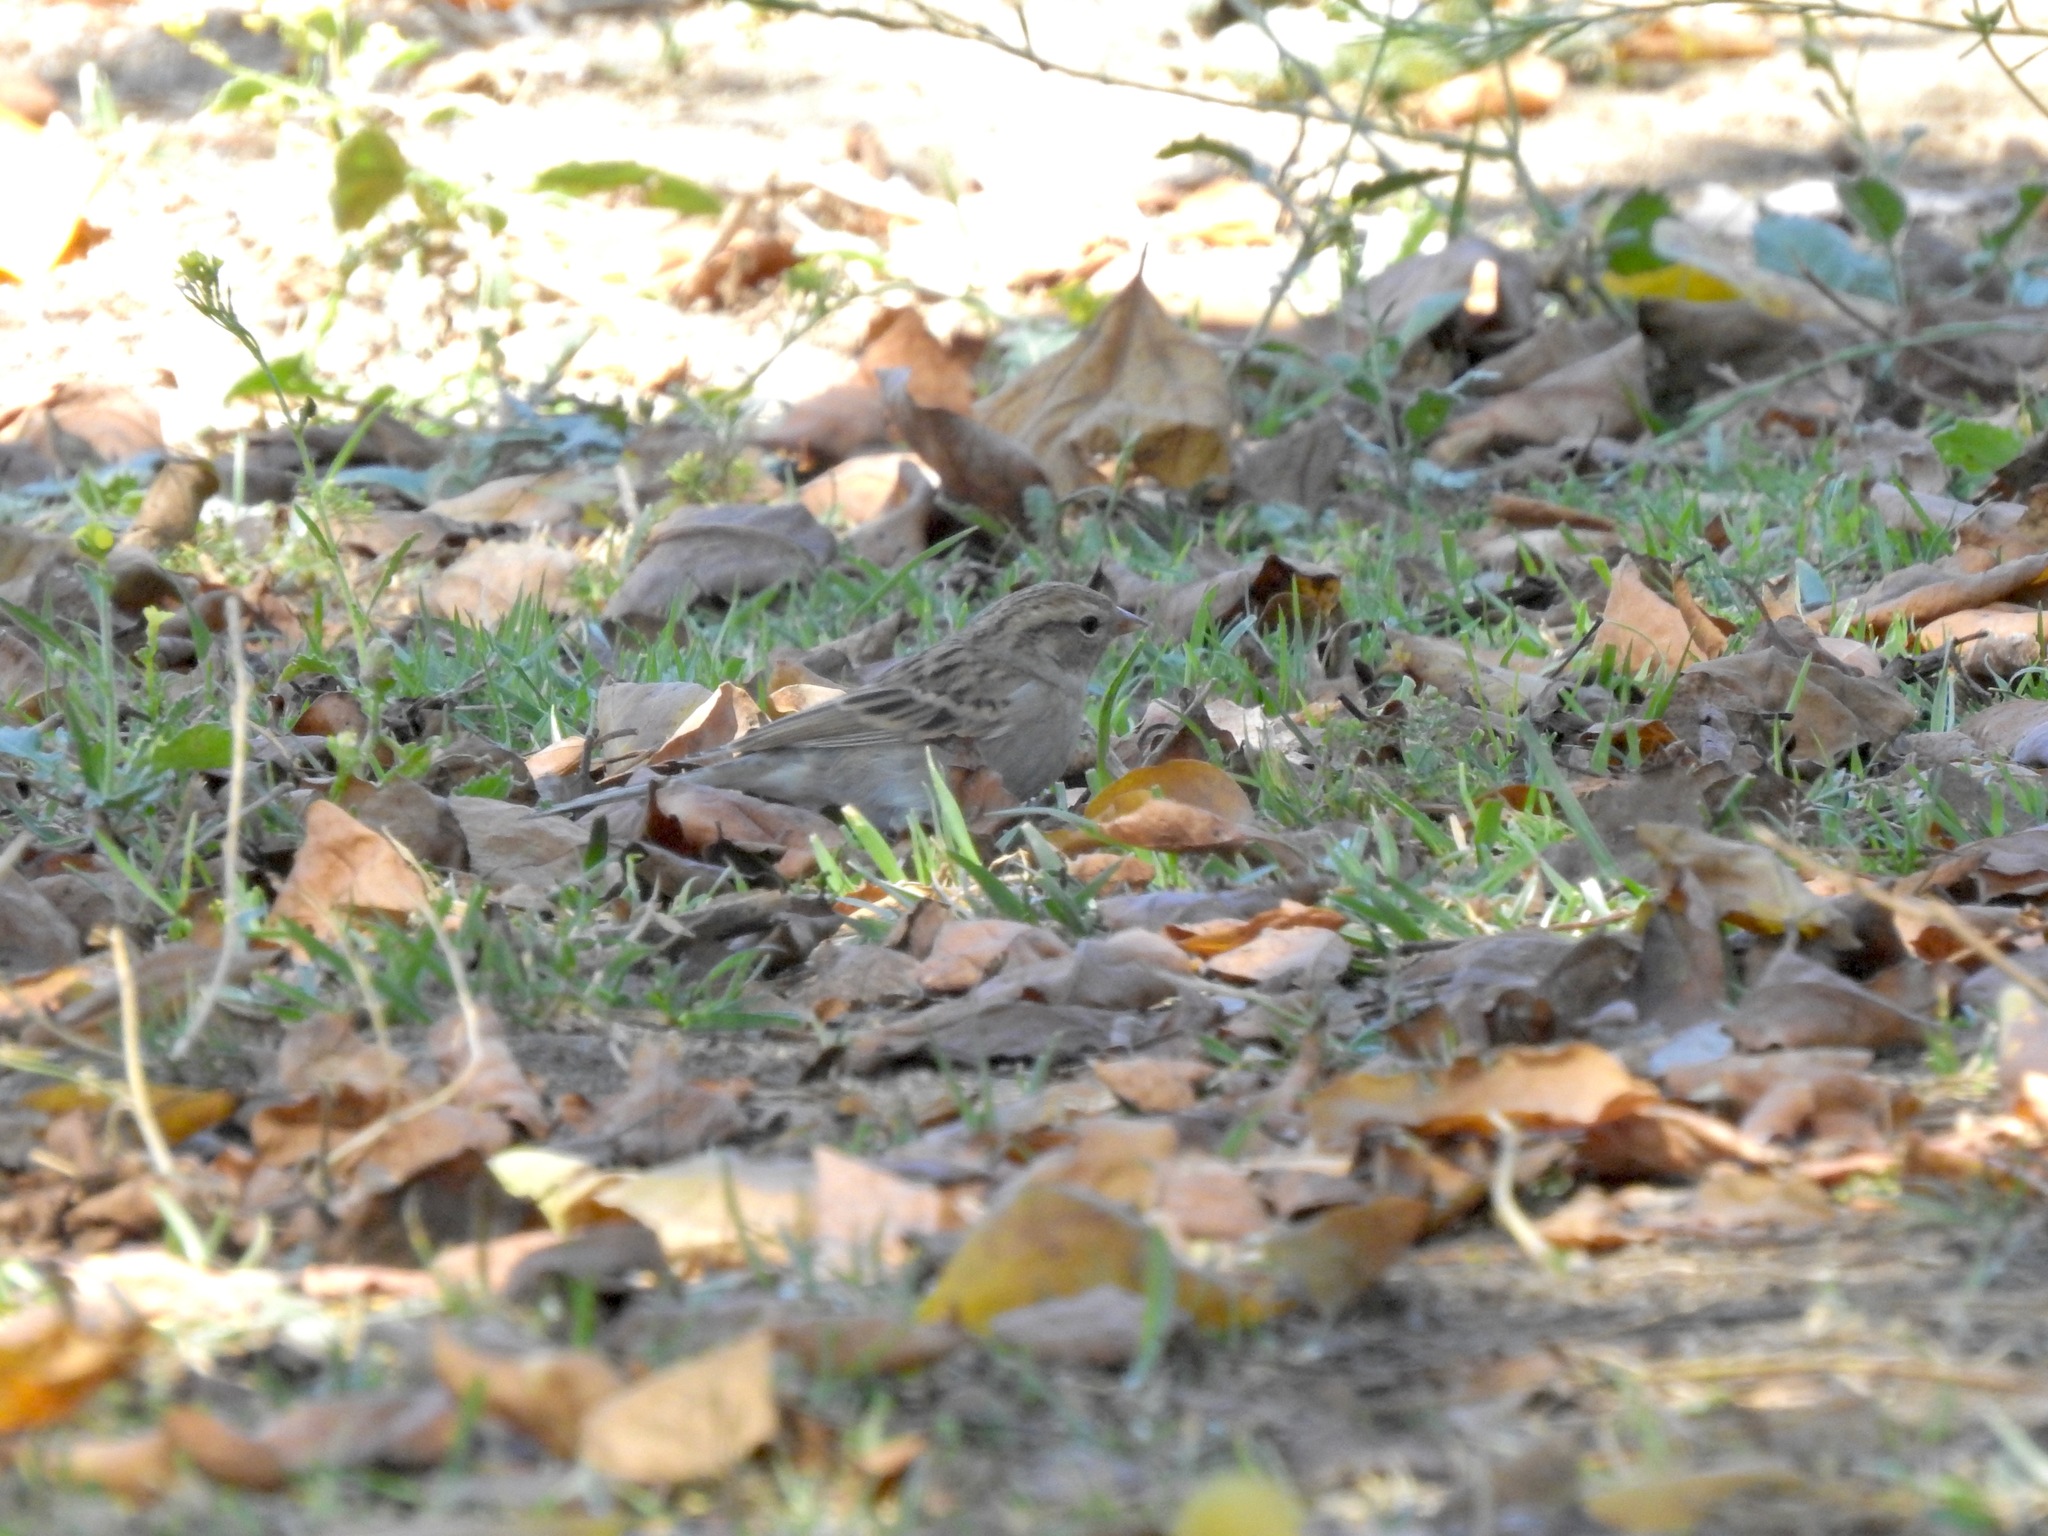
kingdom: Animalia
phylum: Chordata
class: Aves
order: Passeriformes
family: Passerellidae
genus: Spizella
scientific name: Spizella passerina
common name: Chipping sparrow
